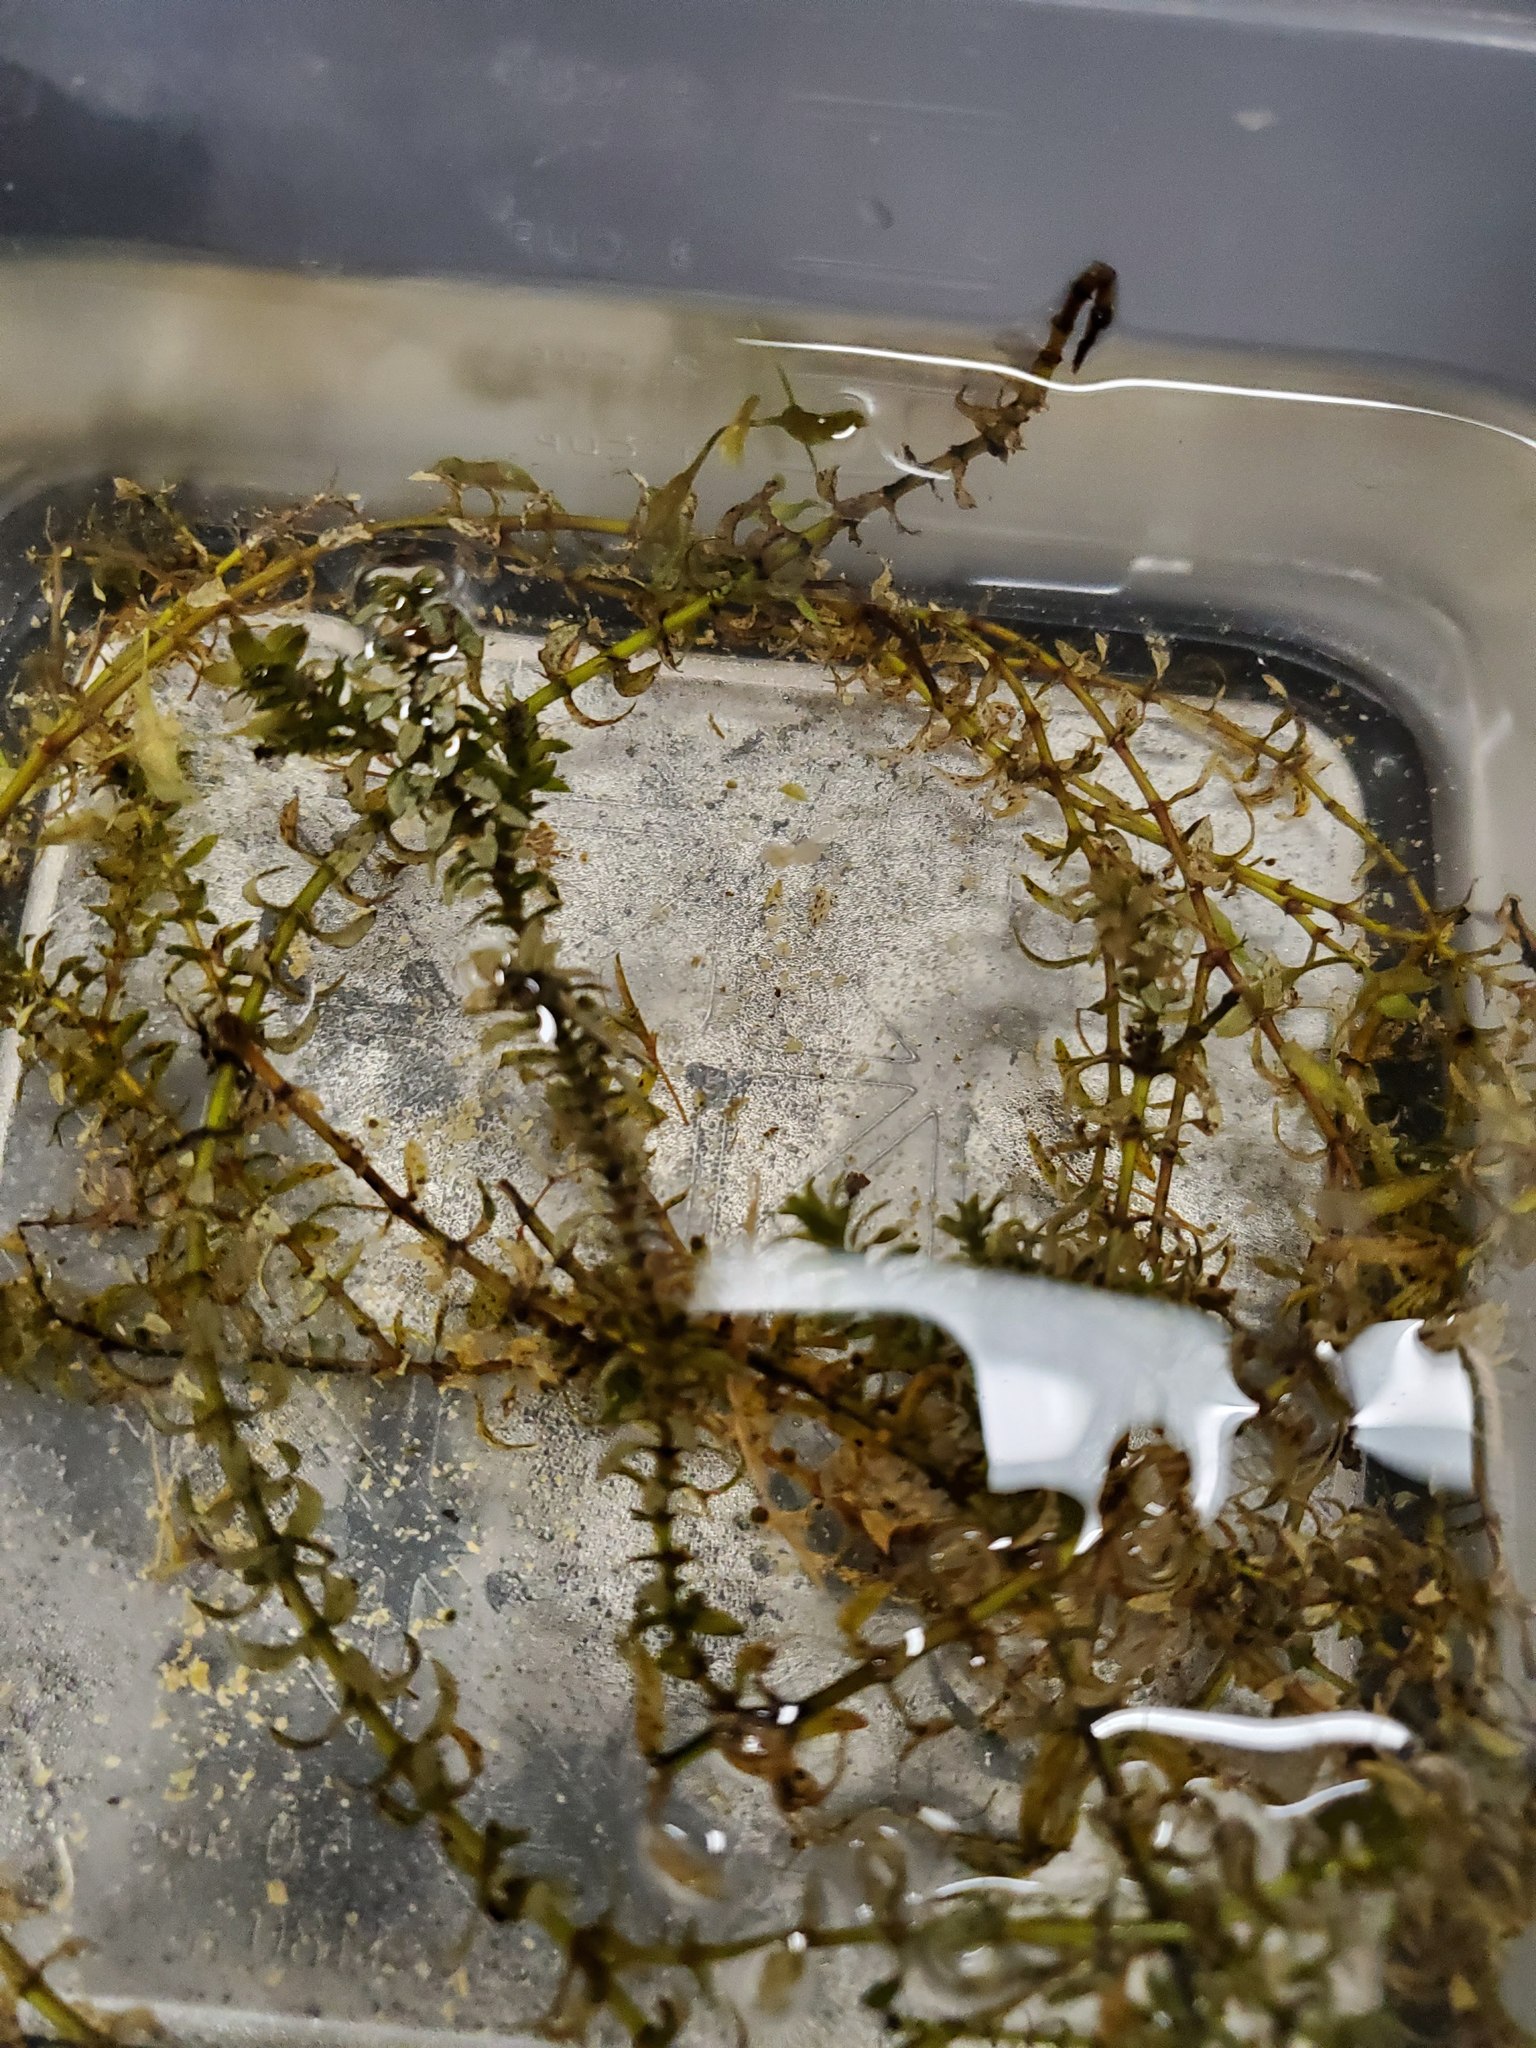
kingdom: Plantae
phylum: Tracheophyta
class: Liliopsida
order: Alismatales
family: Hydrocharitaceae
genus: Elodea
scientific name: Elodea canadensis
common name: Canadian waterweed
